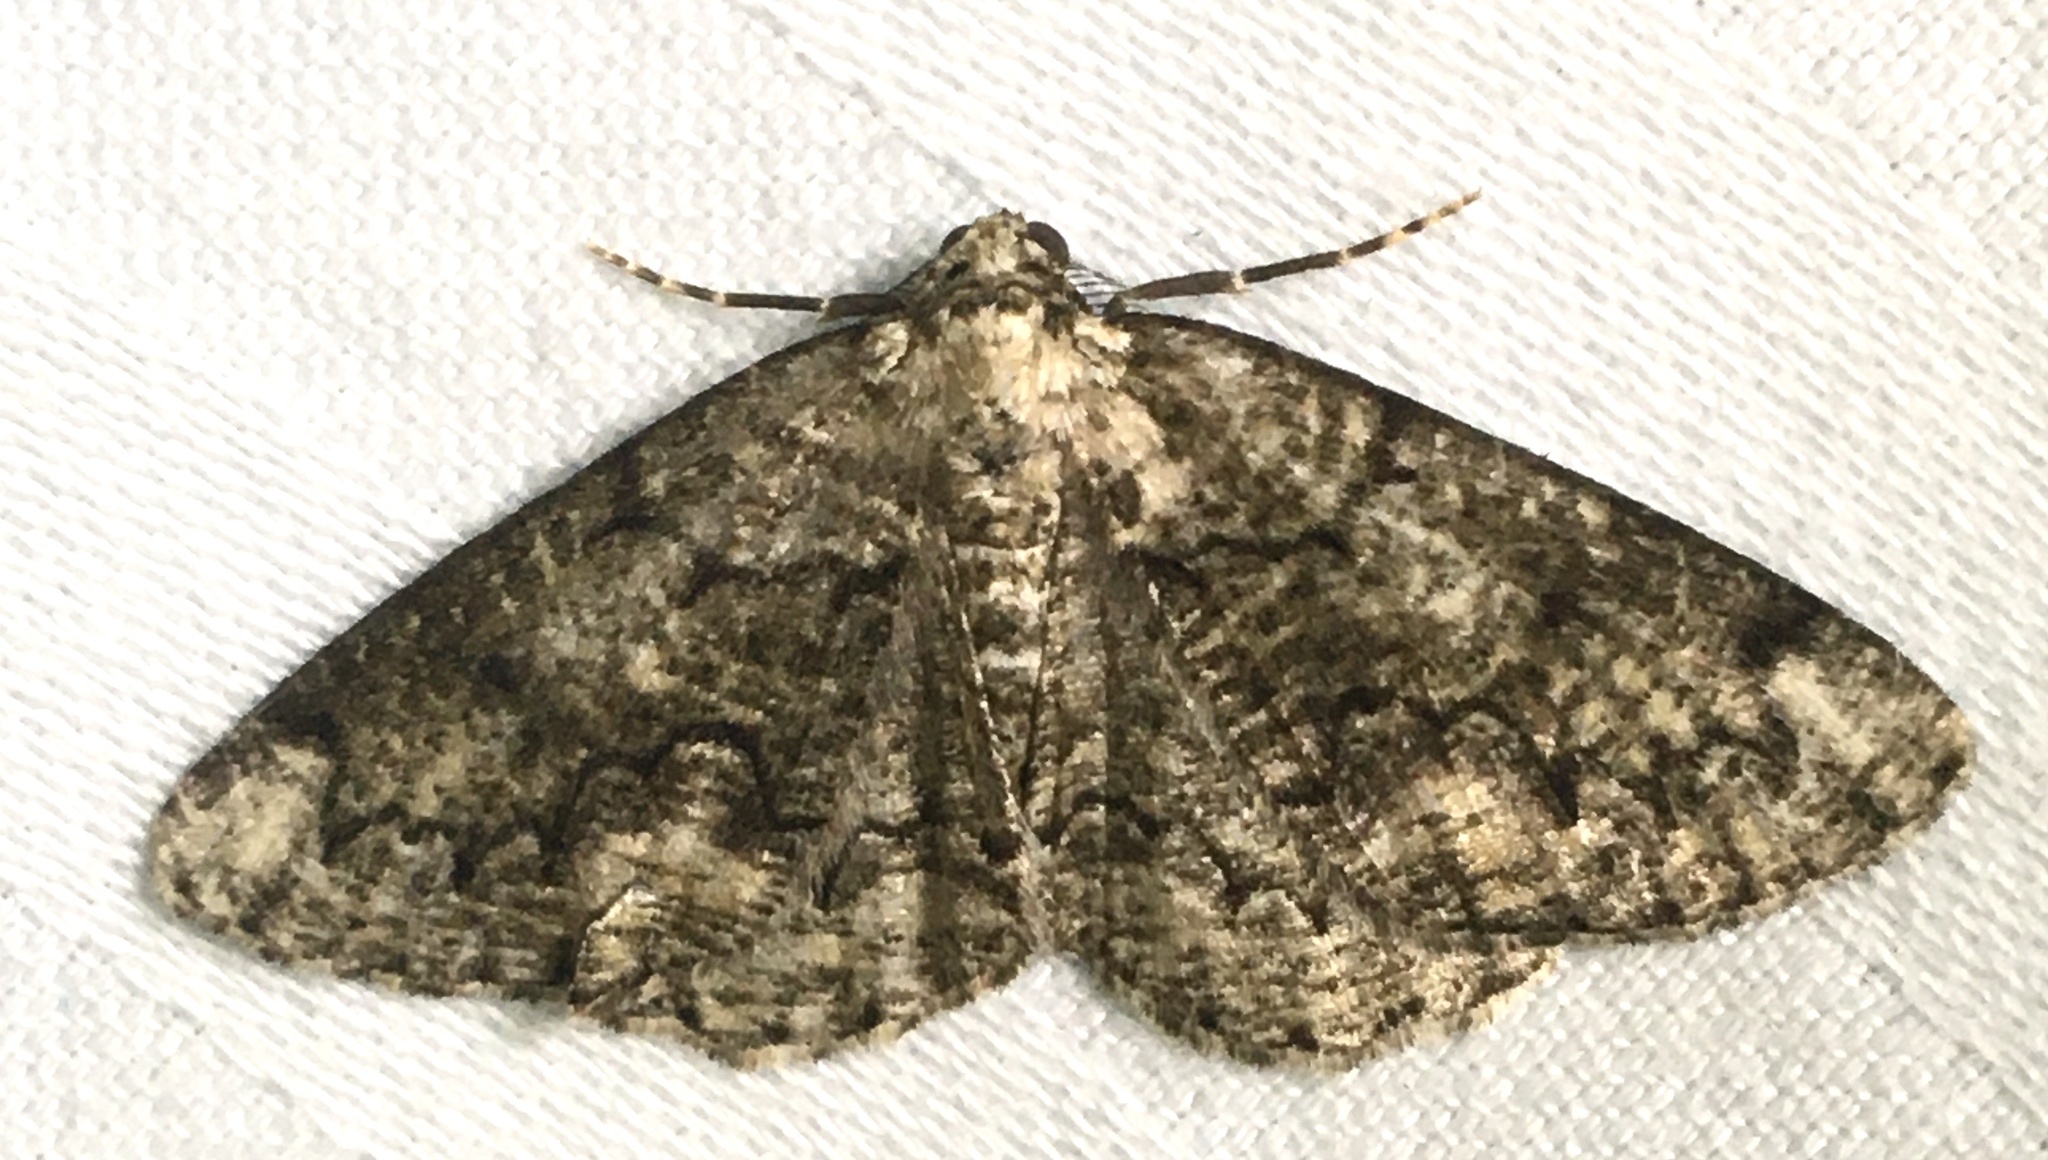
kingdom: Animalia
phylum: Arthropoda
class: Insecta
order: Lepidoptera
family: Geometridae
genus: Cleorodes
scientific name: Cleorodes lichenaria
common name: Brussels lace
